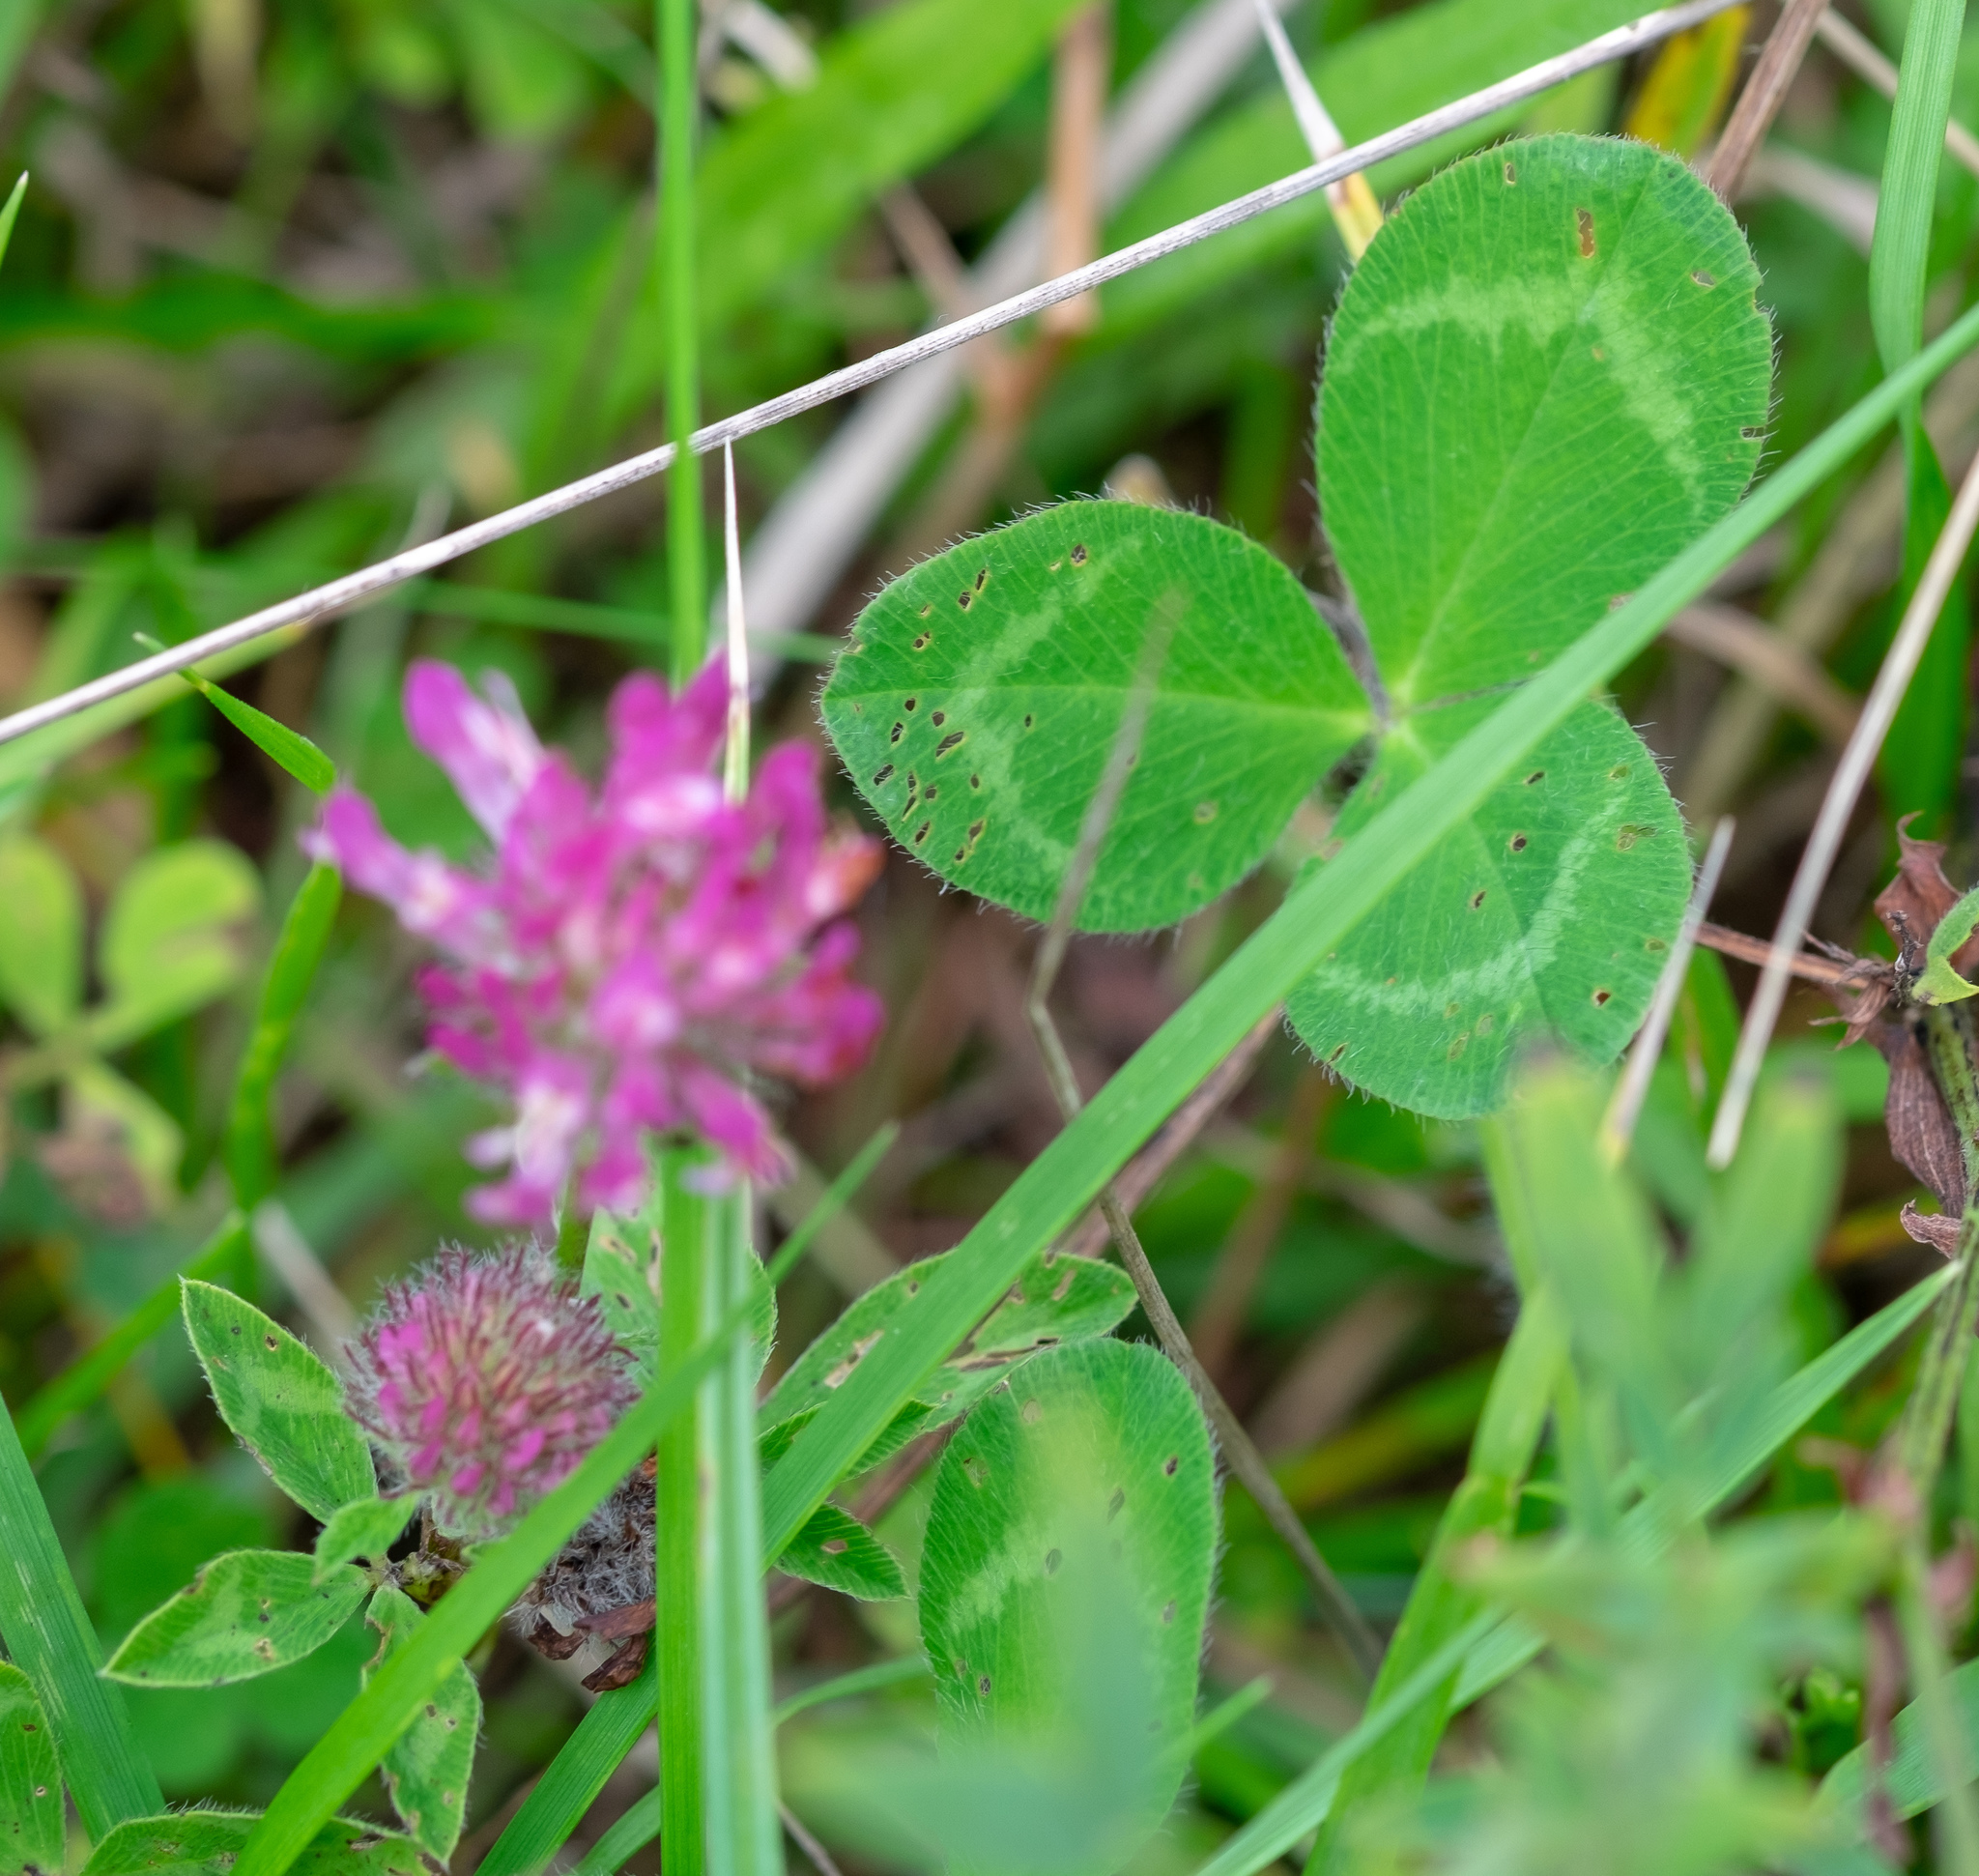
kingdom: Plantae
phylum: Tracheophyta
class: Magnoliopsida
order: Fabales
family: Fabaceae
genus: Trifolium
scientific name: Trifolium pratense
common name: Red clover
